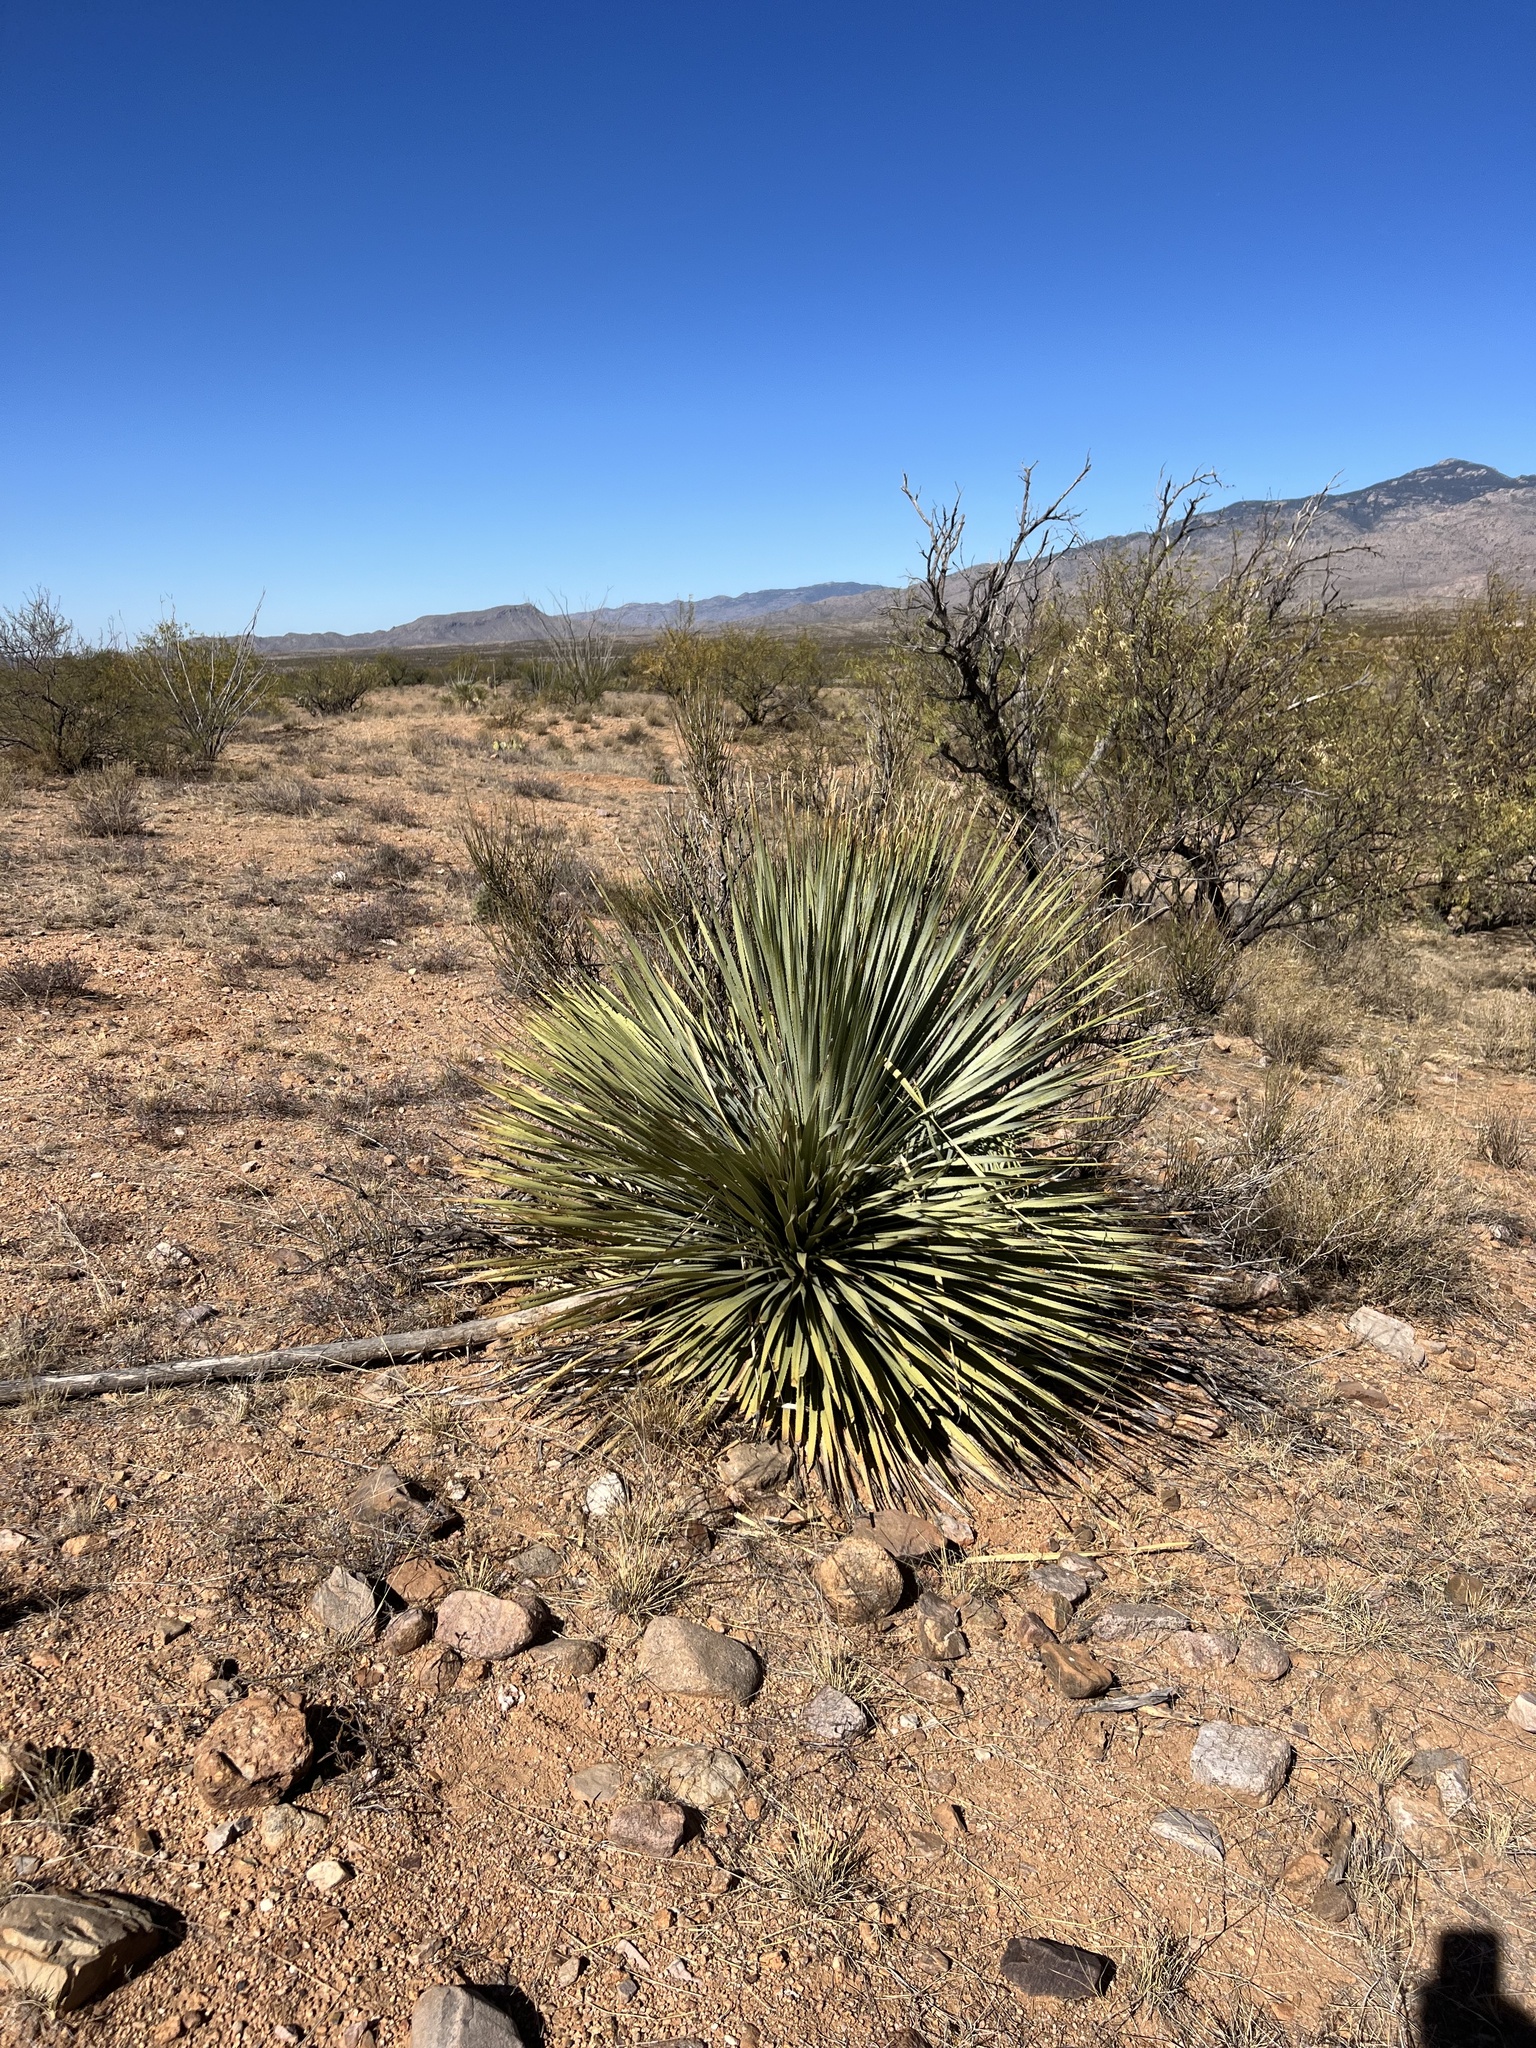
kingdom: Plantae
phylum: Tracheophyta
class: Liliopsida
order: Asparagales
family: Asparagaceae
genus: Dasylirion
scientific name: Dasylirion wheeleri
